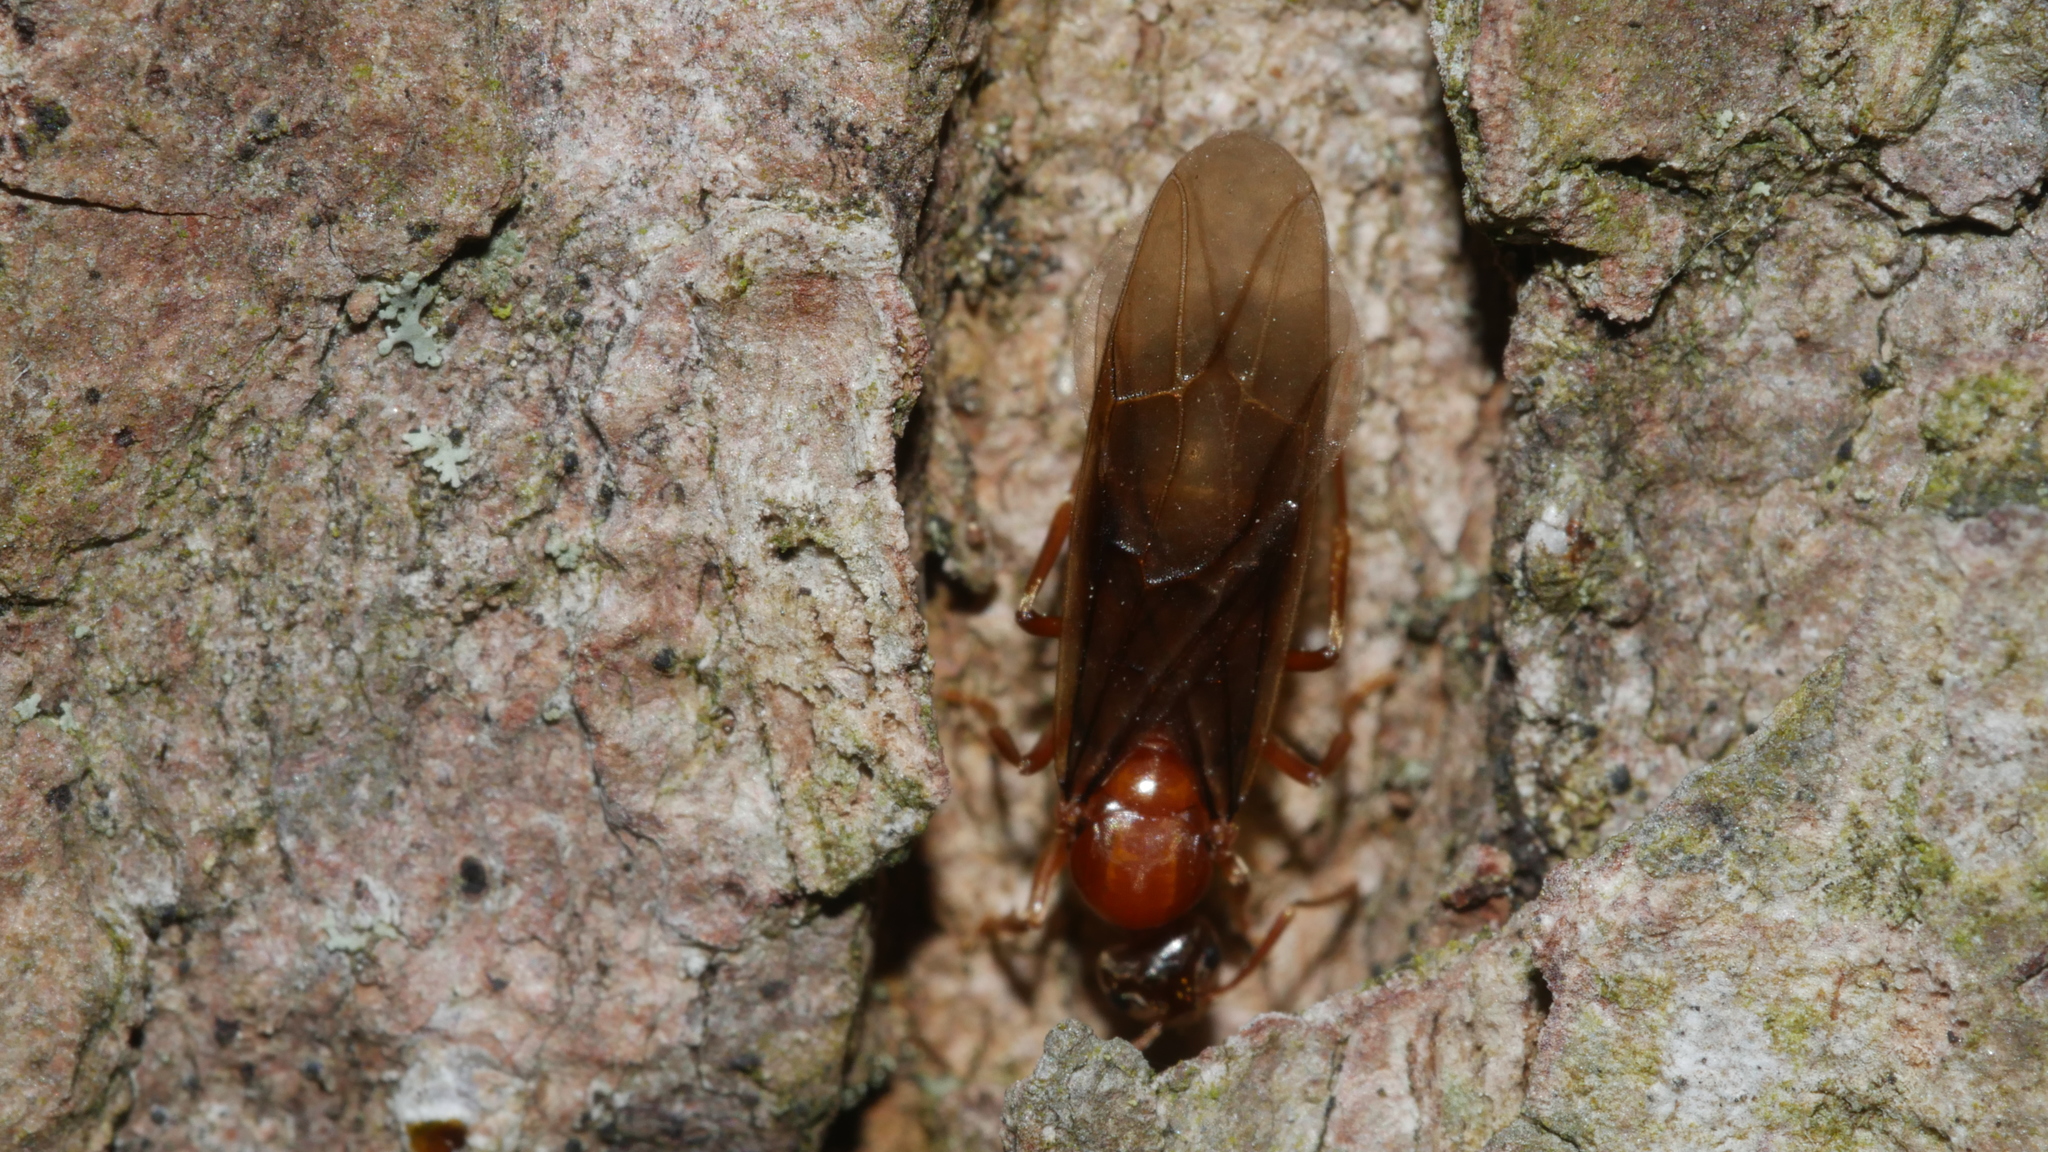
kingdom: Animalia
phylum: Arthropoda
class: Insecta
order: Hymenoptera
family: Formicidae
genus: Prenolepis
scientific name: Prenolepis imparis
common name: Small honey ant
